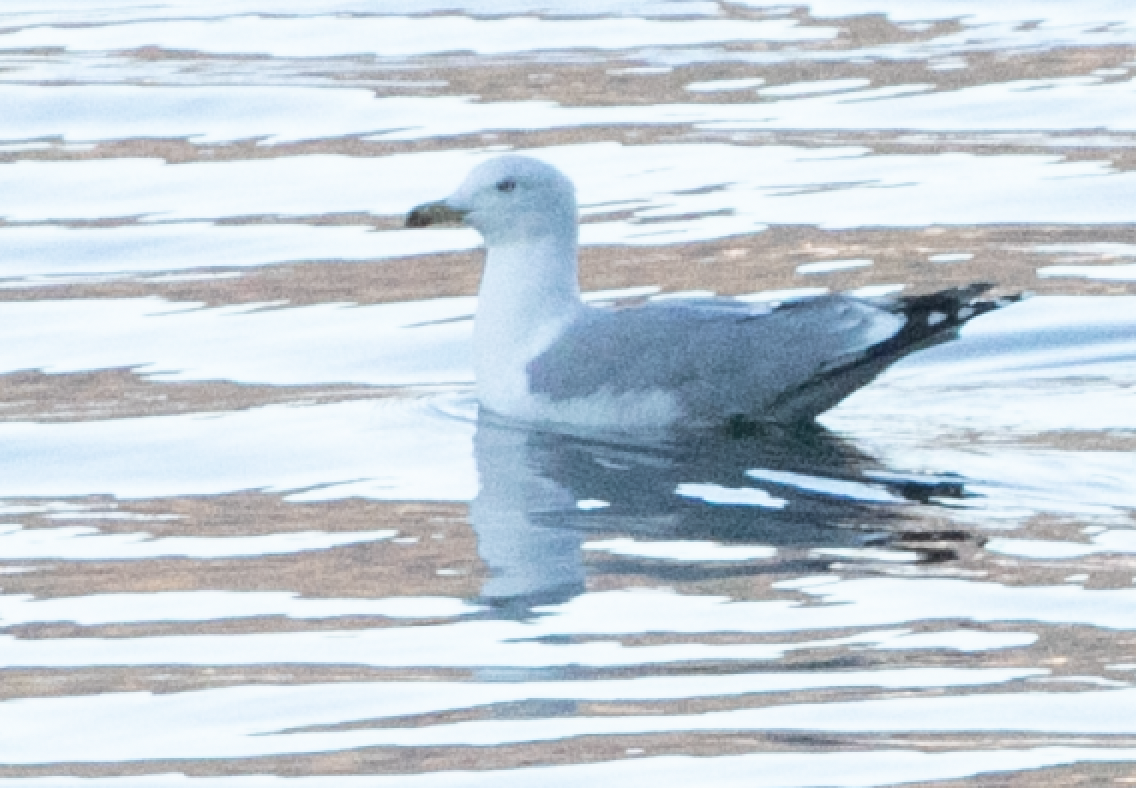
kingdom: Animalia
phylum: Chordata
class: Aves
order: Charadriiformes
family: Laridae
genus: Larus
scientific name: Larus michahellis
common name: Yellow-legged gull
